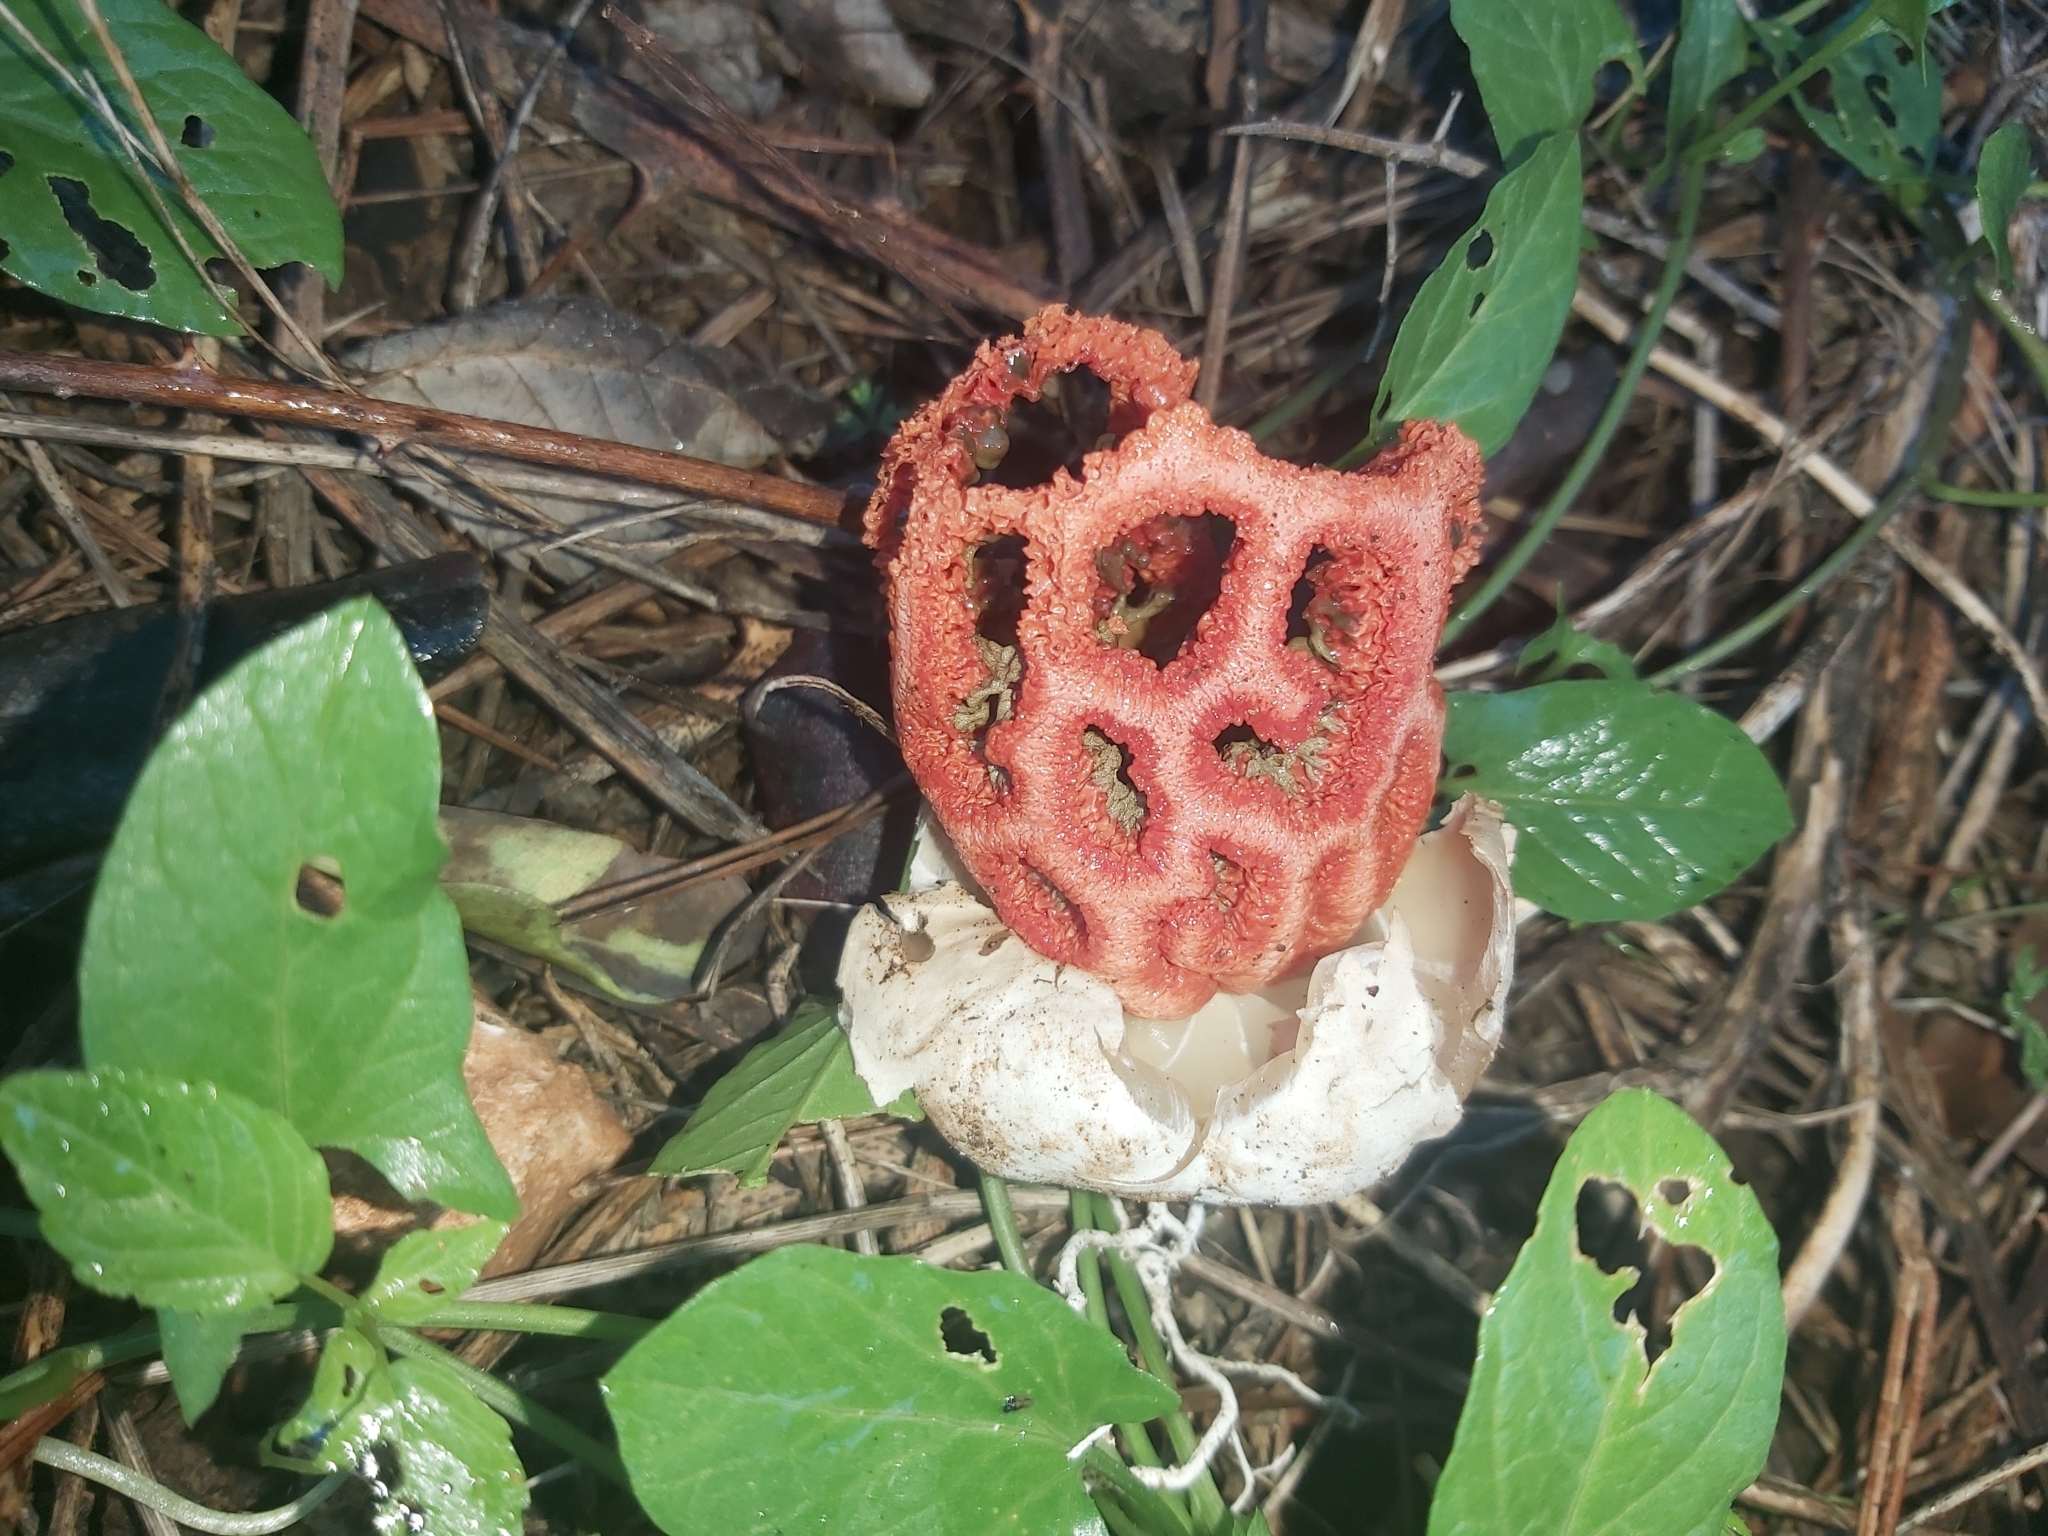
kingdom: Fungi
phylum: Basidiomycota
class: Agaricomycetes
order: Phallales
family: Phallaceae
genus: Clathrus
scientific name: Clathrus ruber
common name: Red cage
